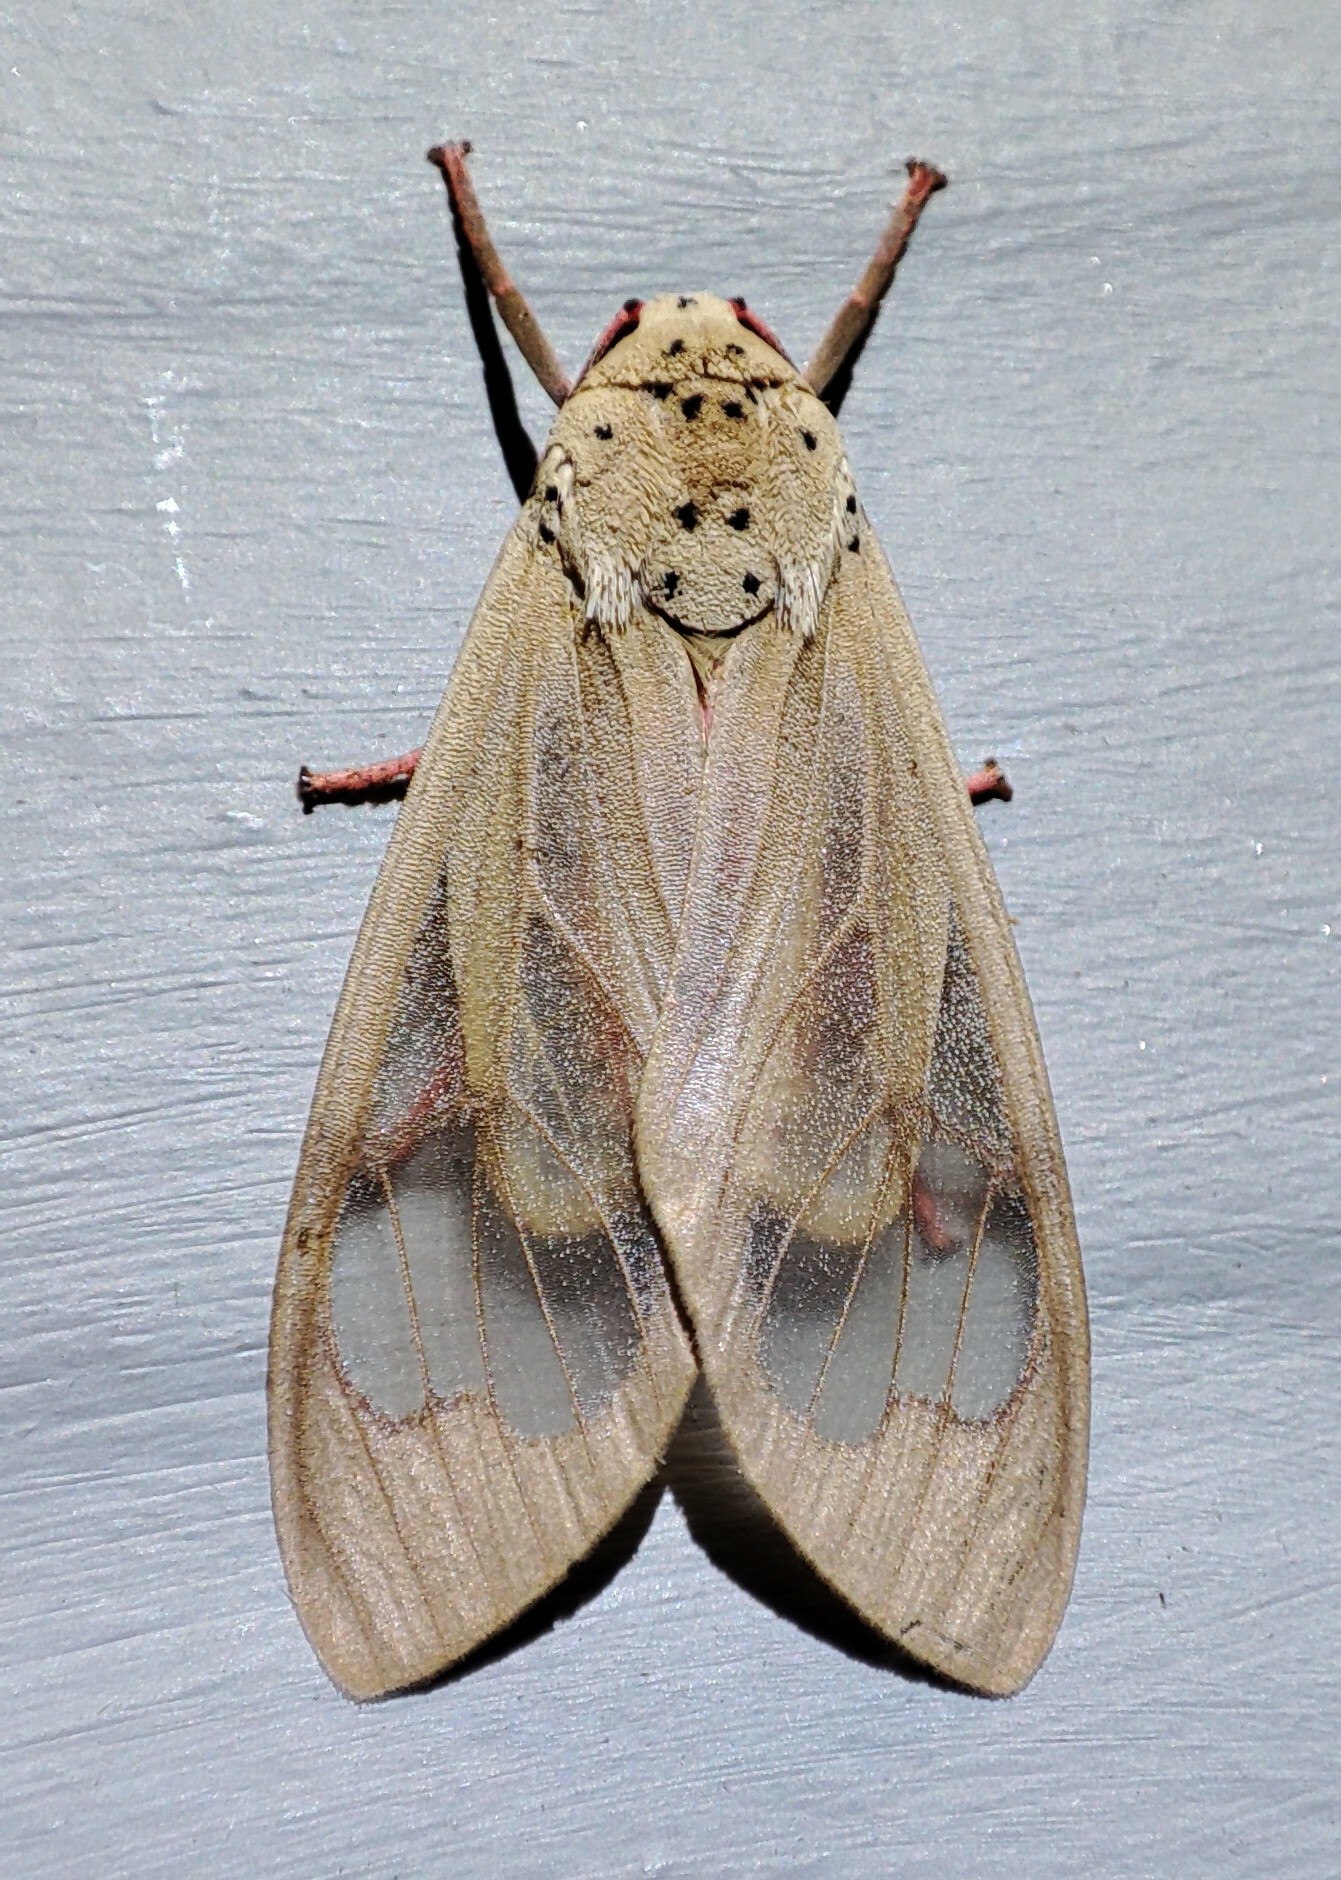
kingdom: Animalia
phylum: Arthropoda
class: Insecta
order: Lepidoptera
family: Erebidae
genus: Amerila
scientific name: Amerila bauri
